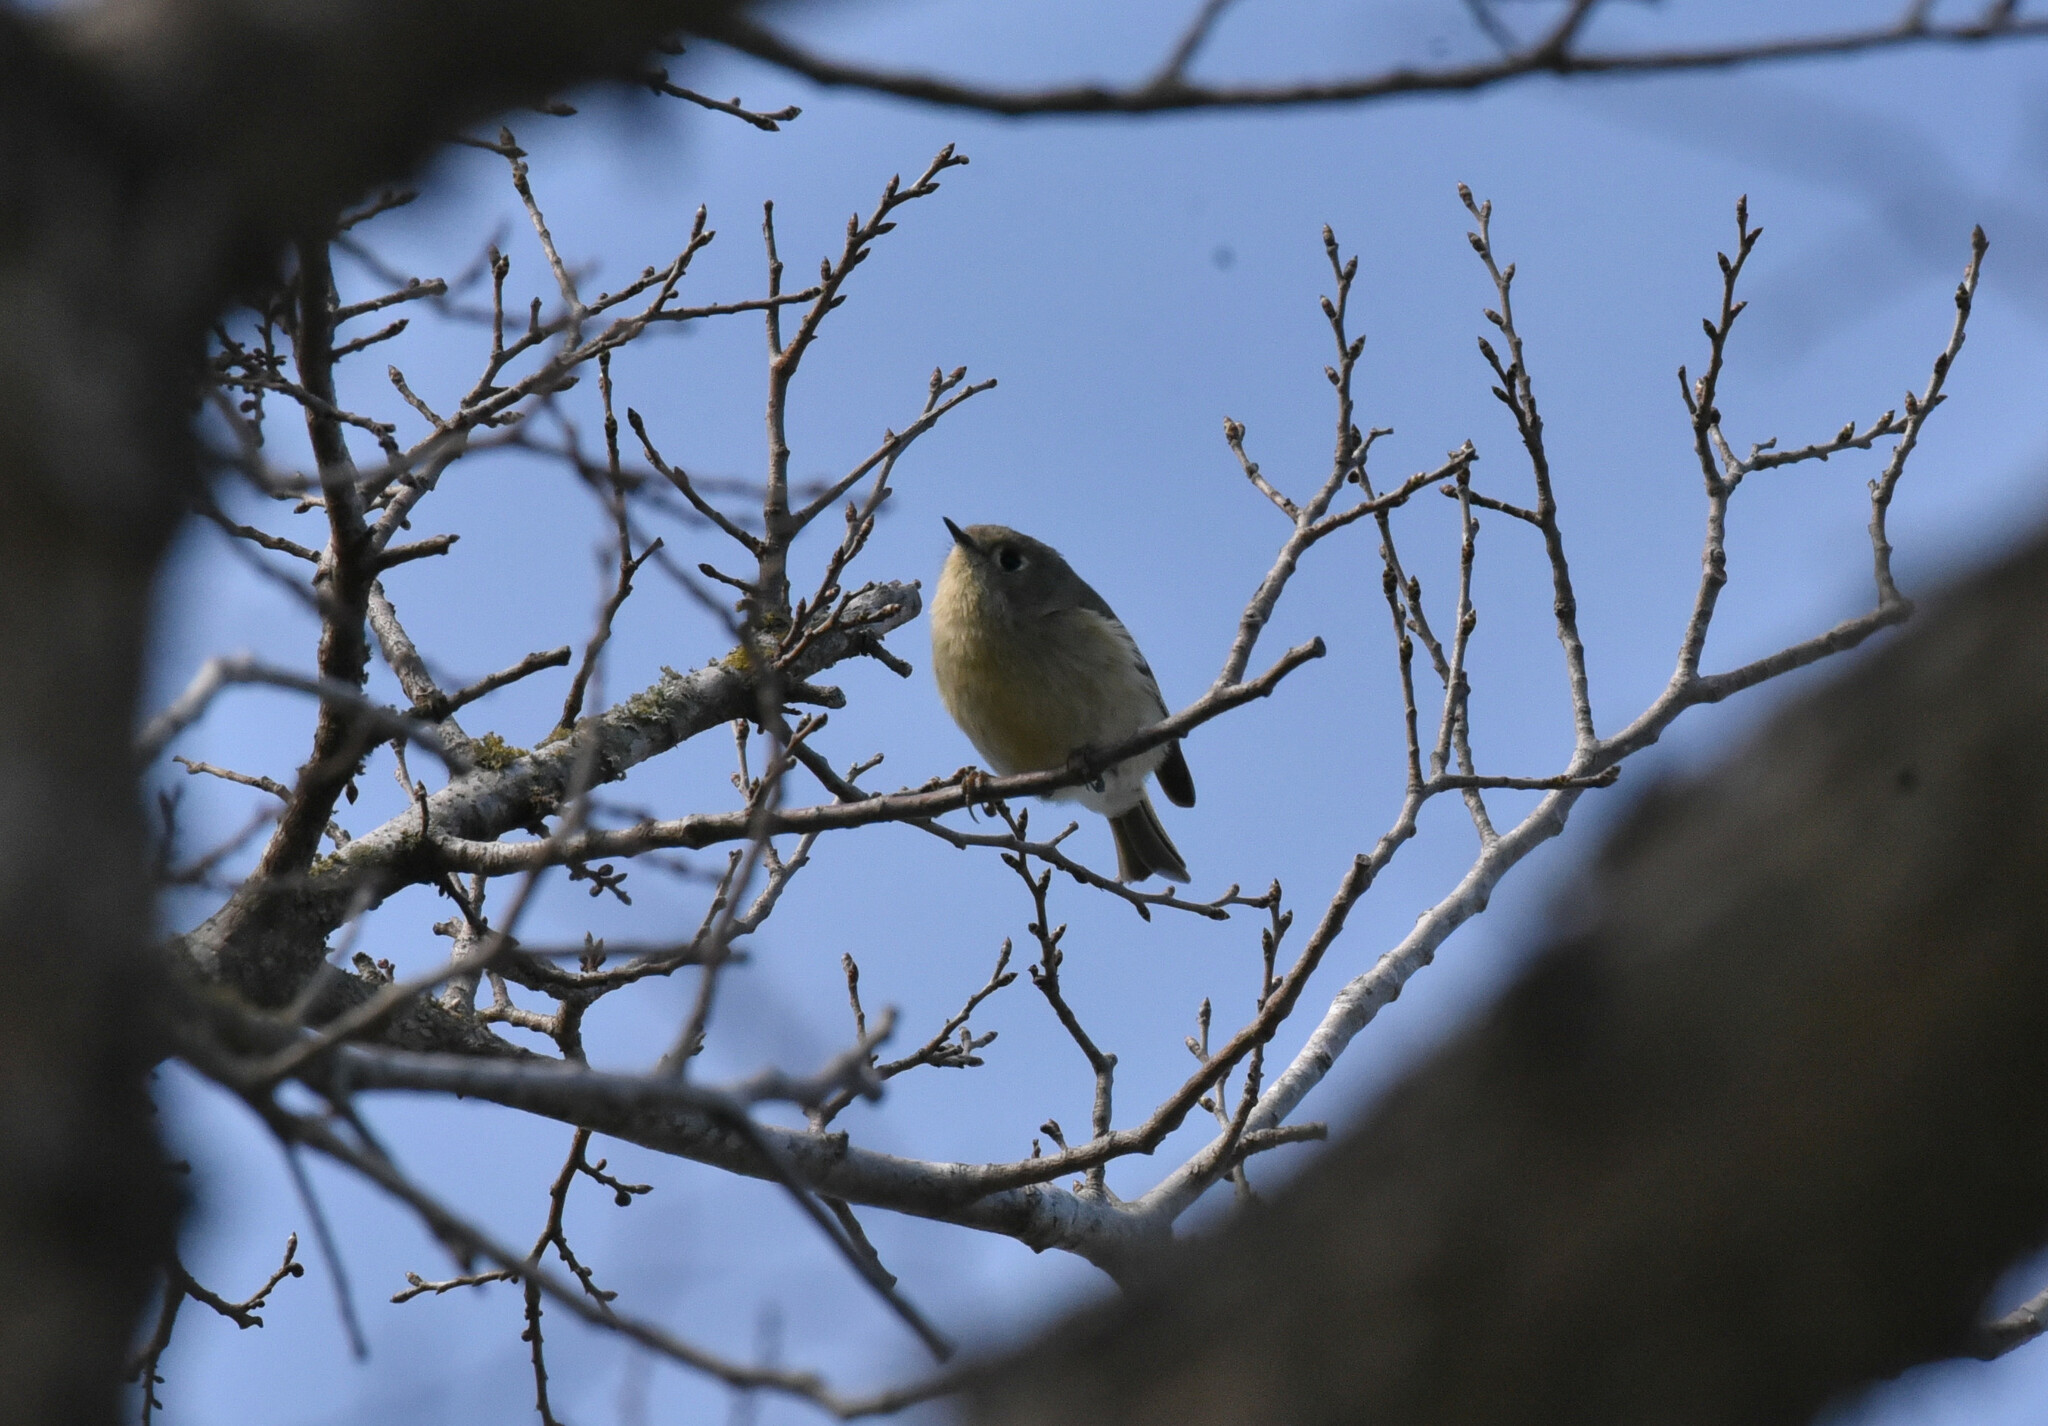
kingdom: Animalia
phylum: Chordata
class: Aves
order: Passeriformes
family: Regulidae
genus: Regulus
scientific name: Regulus calendula
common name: Ruby-crowned kinglet
